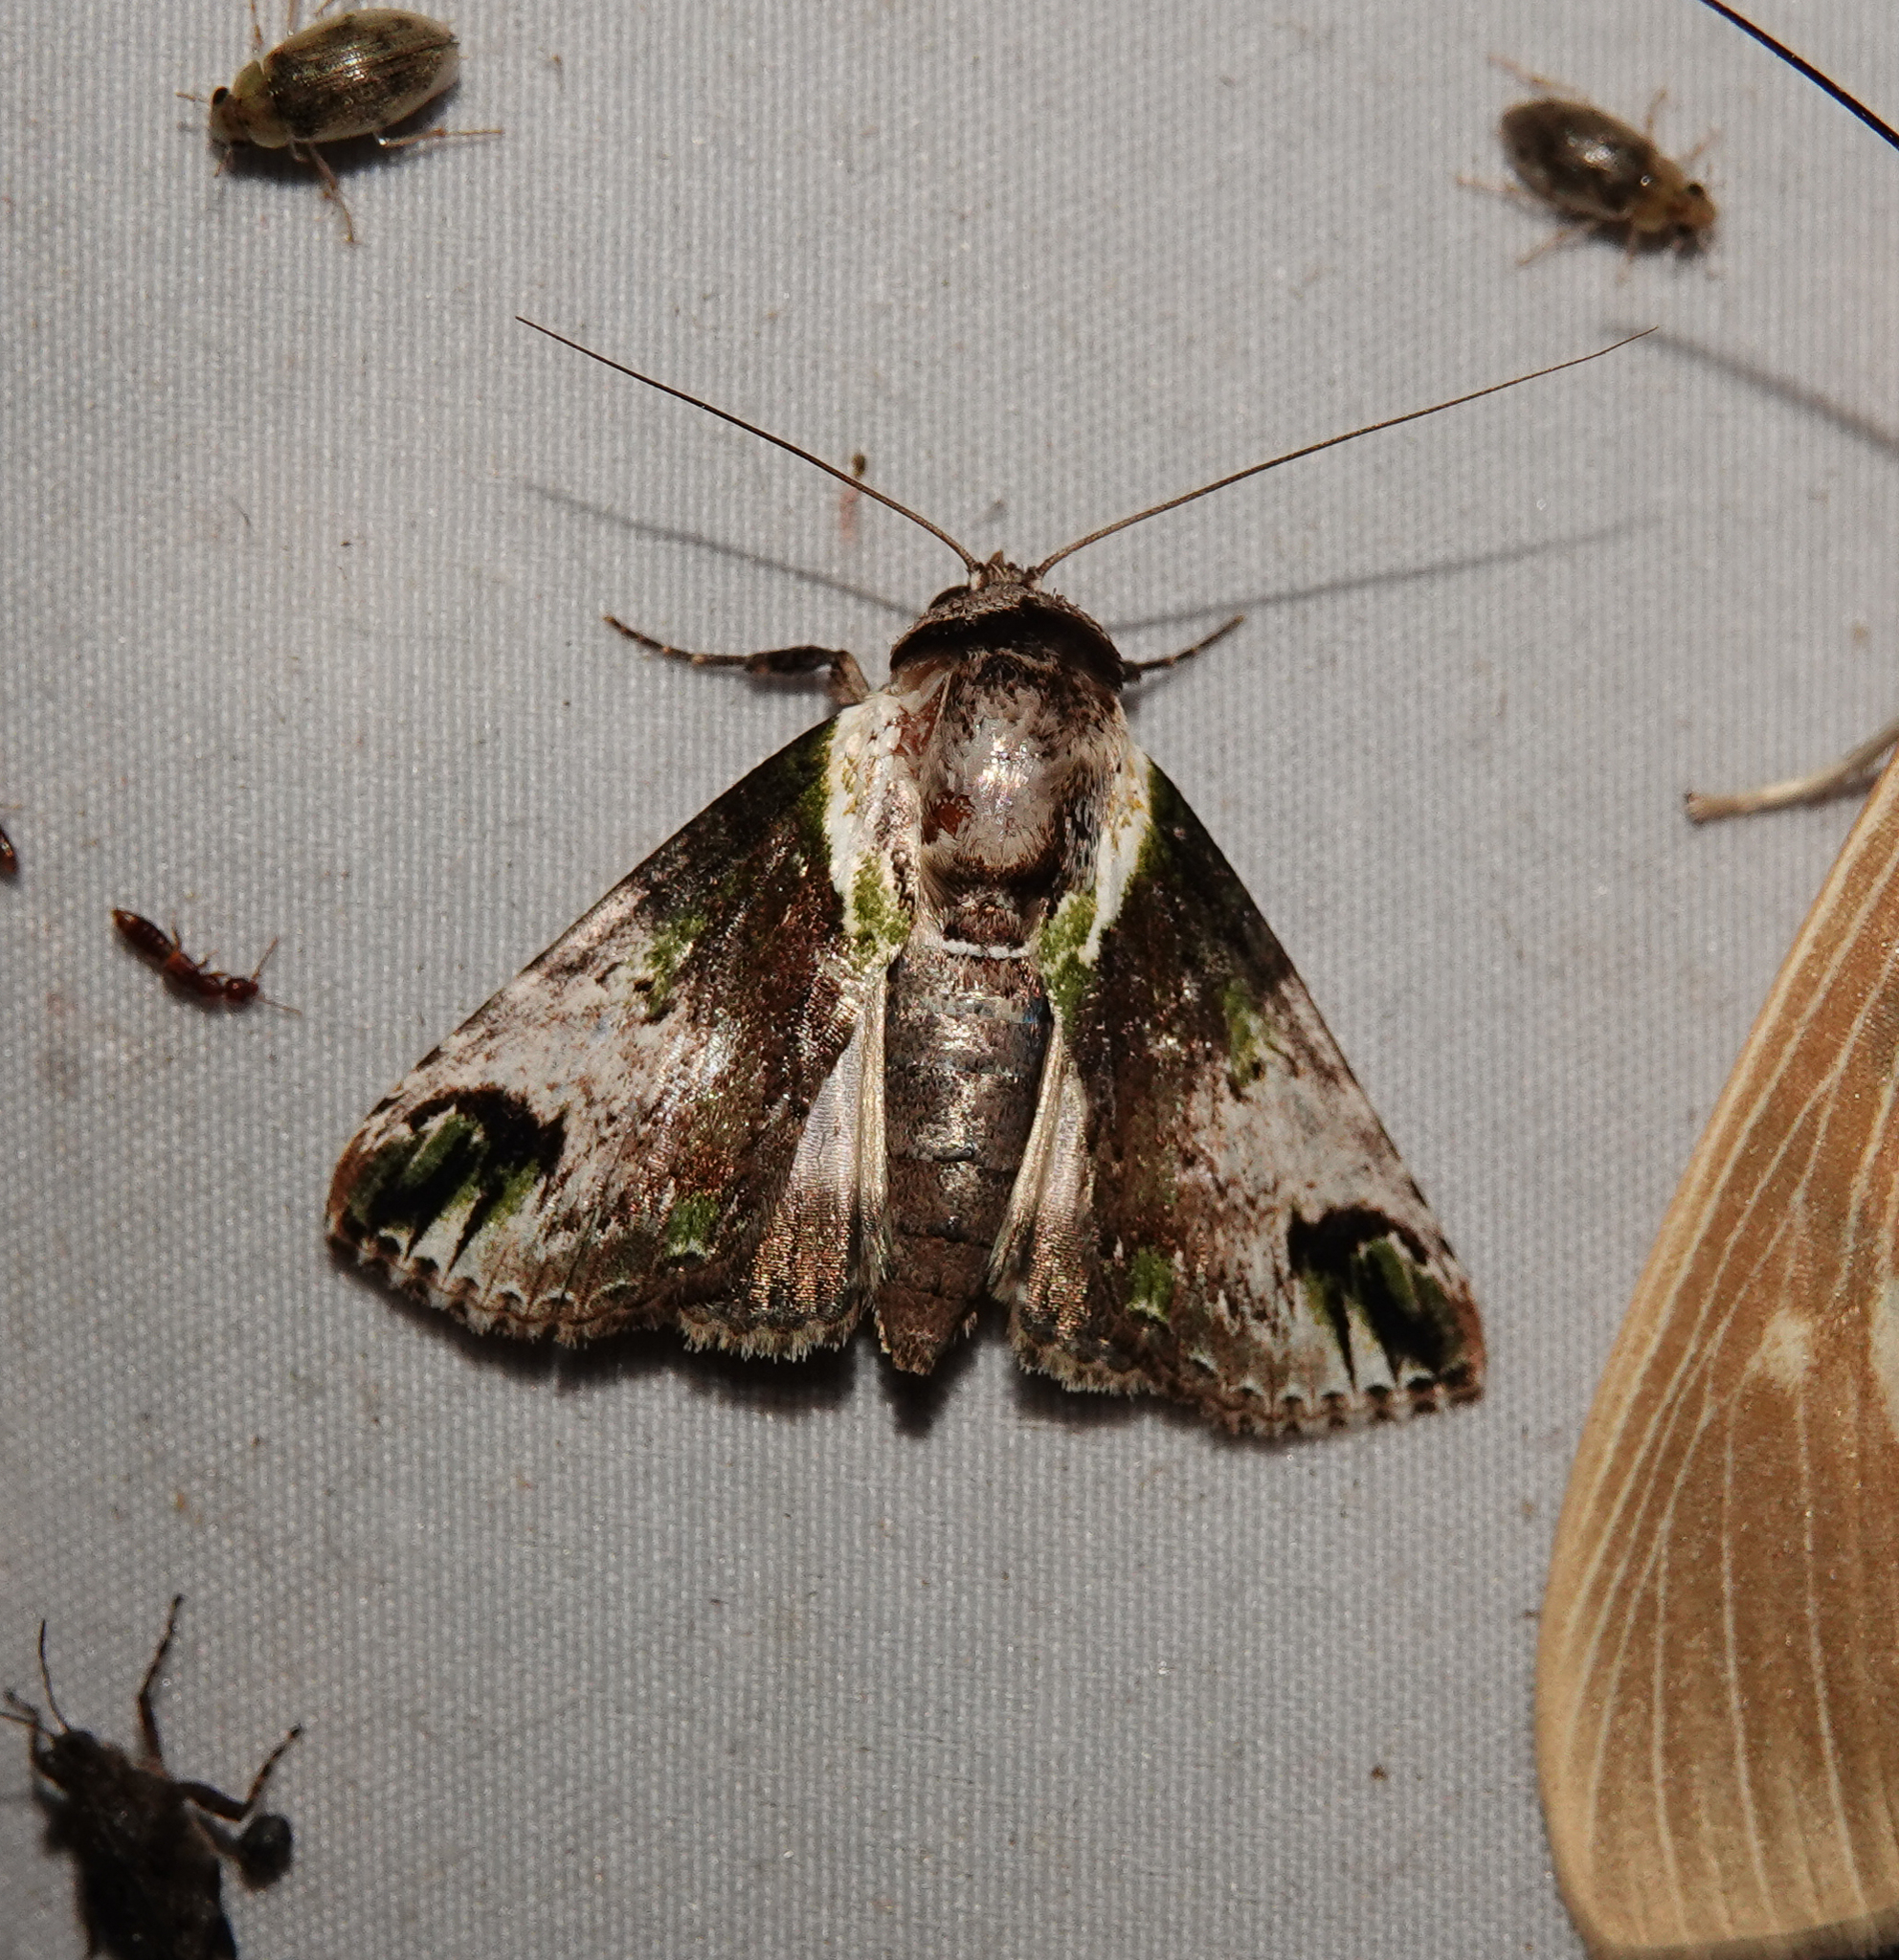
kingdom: Animalia
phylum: Arthropoda
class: Insecta
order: Lepidoptera
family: Nolidae
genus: Risoba
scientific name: Risoba obstructa
